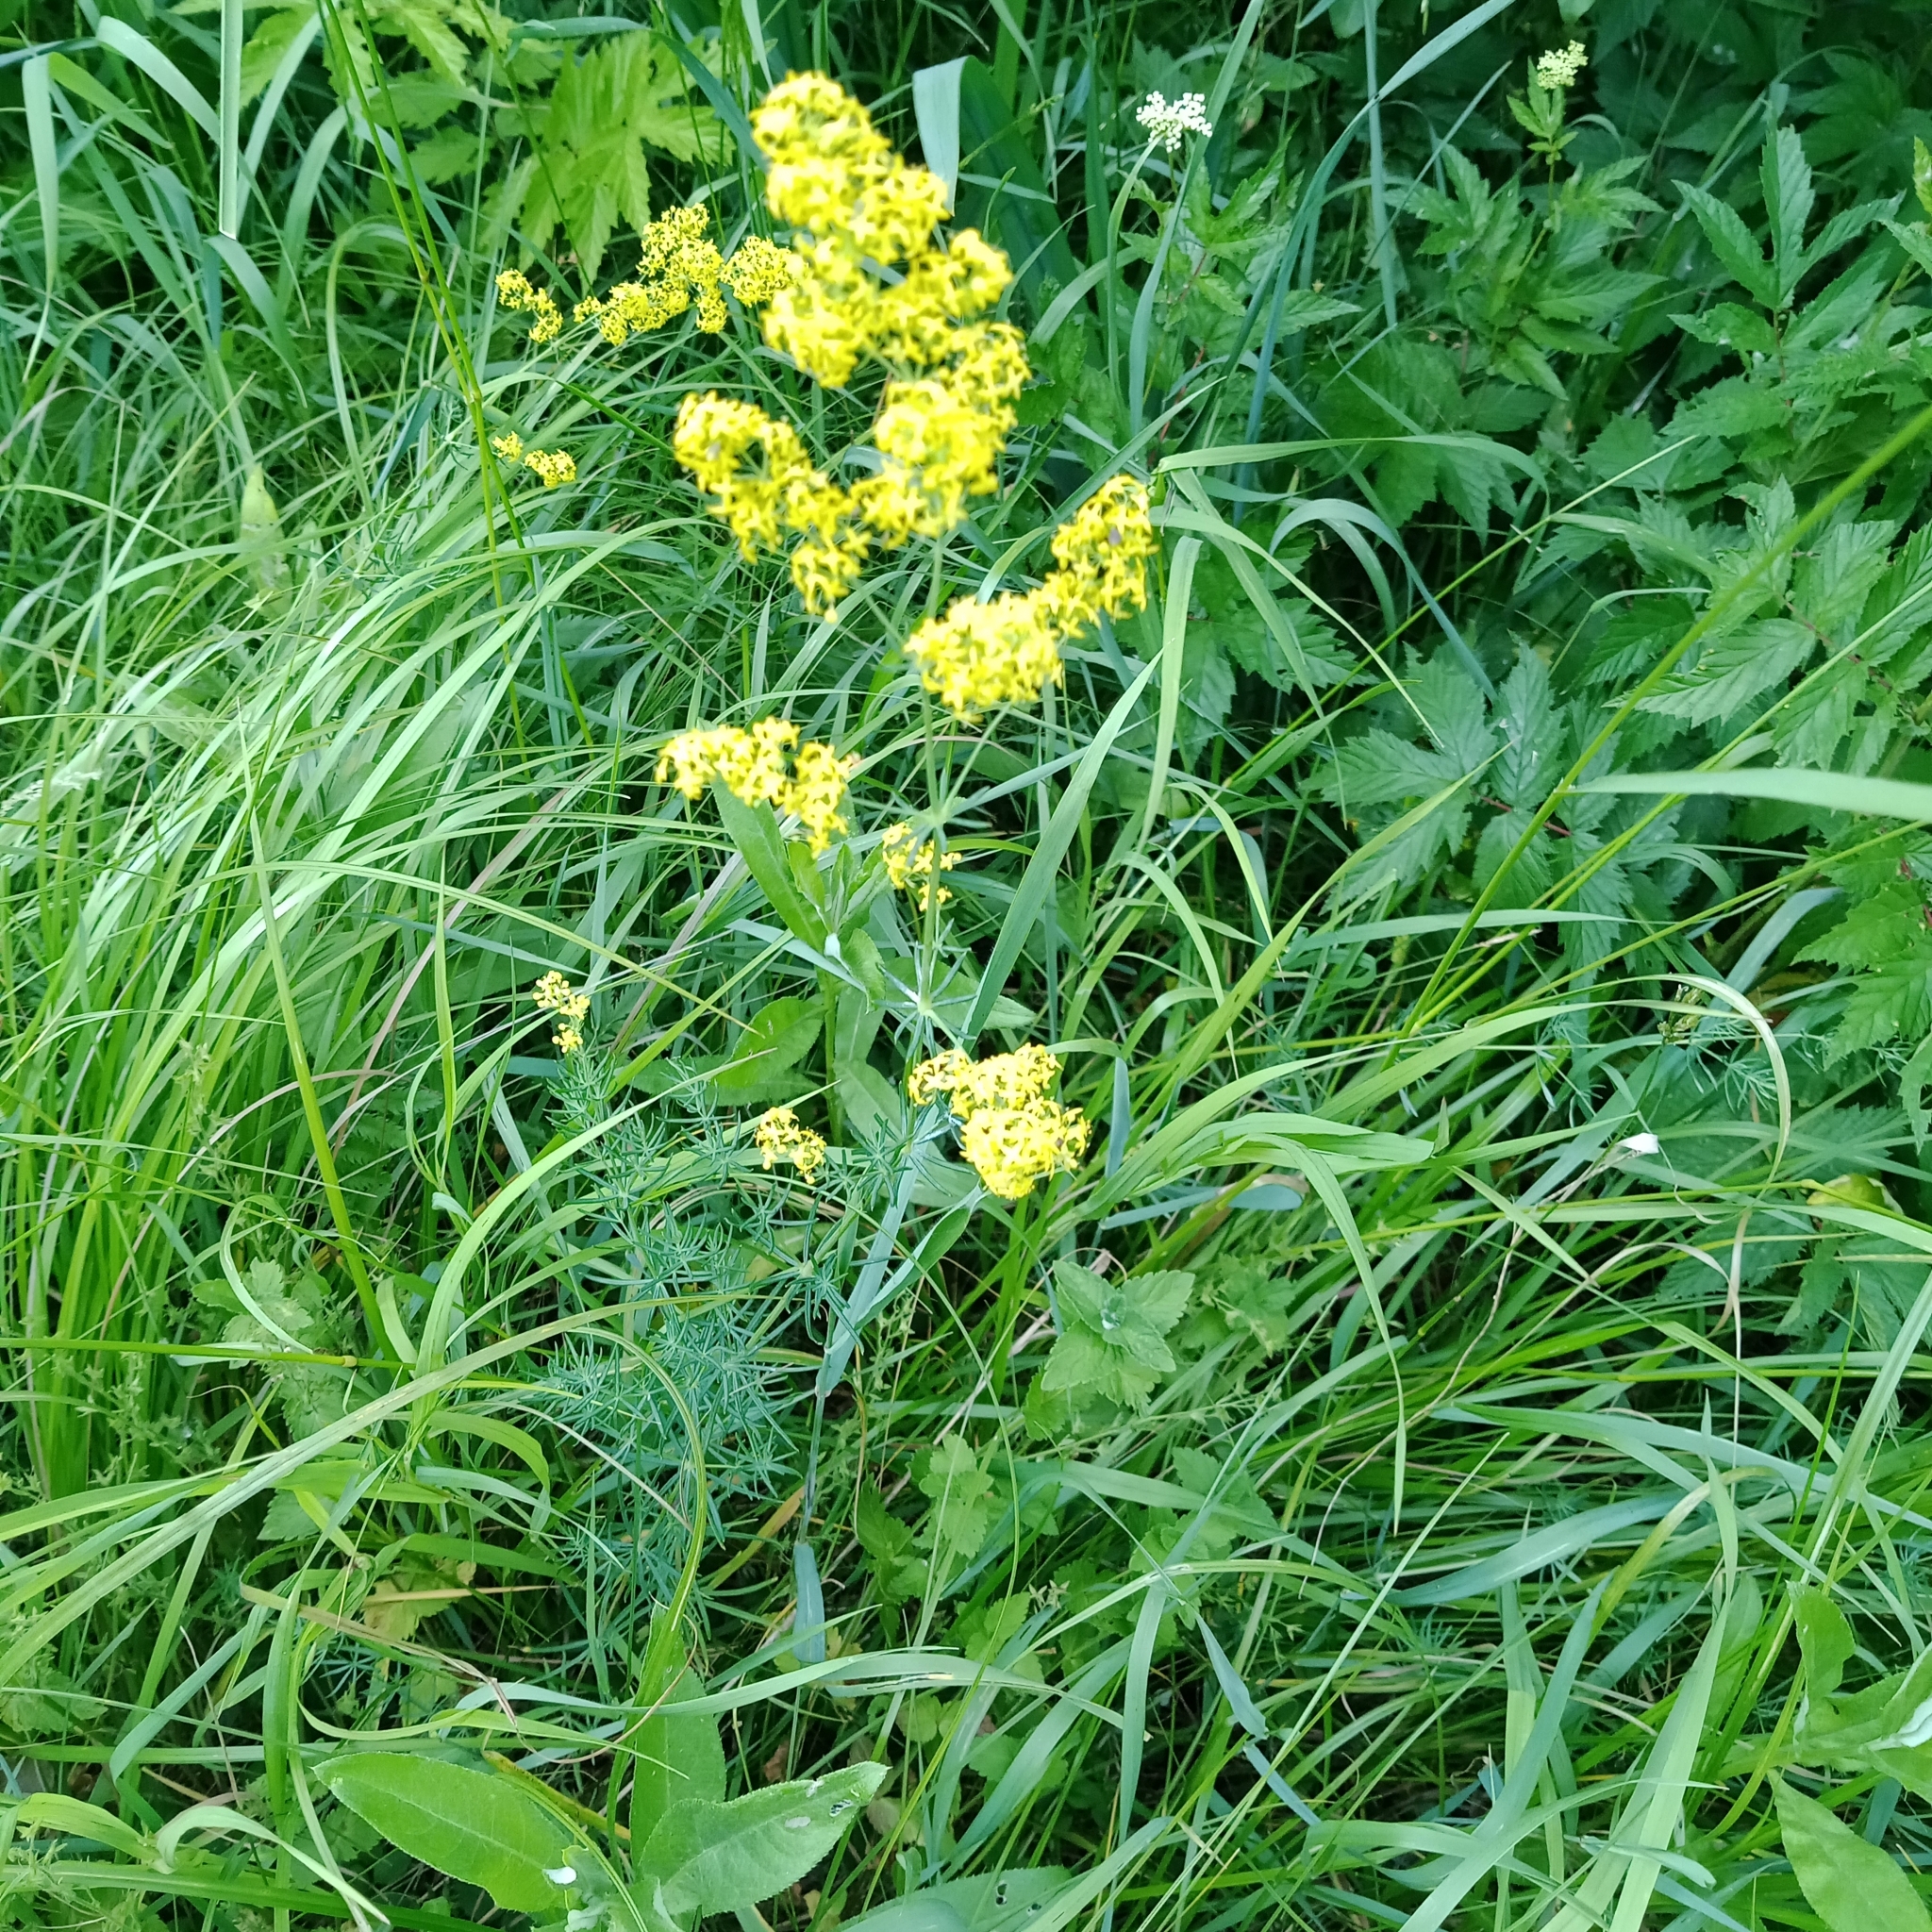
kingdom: Plantae
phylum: Tracheophyta
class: Magnoliopsida
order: Gentianales
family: Rubiaceae
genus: Galium
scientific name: Galium verum
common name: Lady's bedstraw
